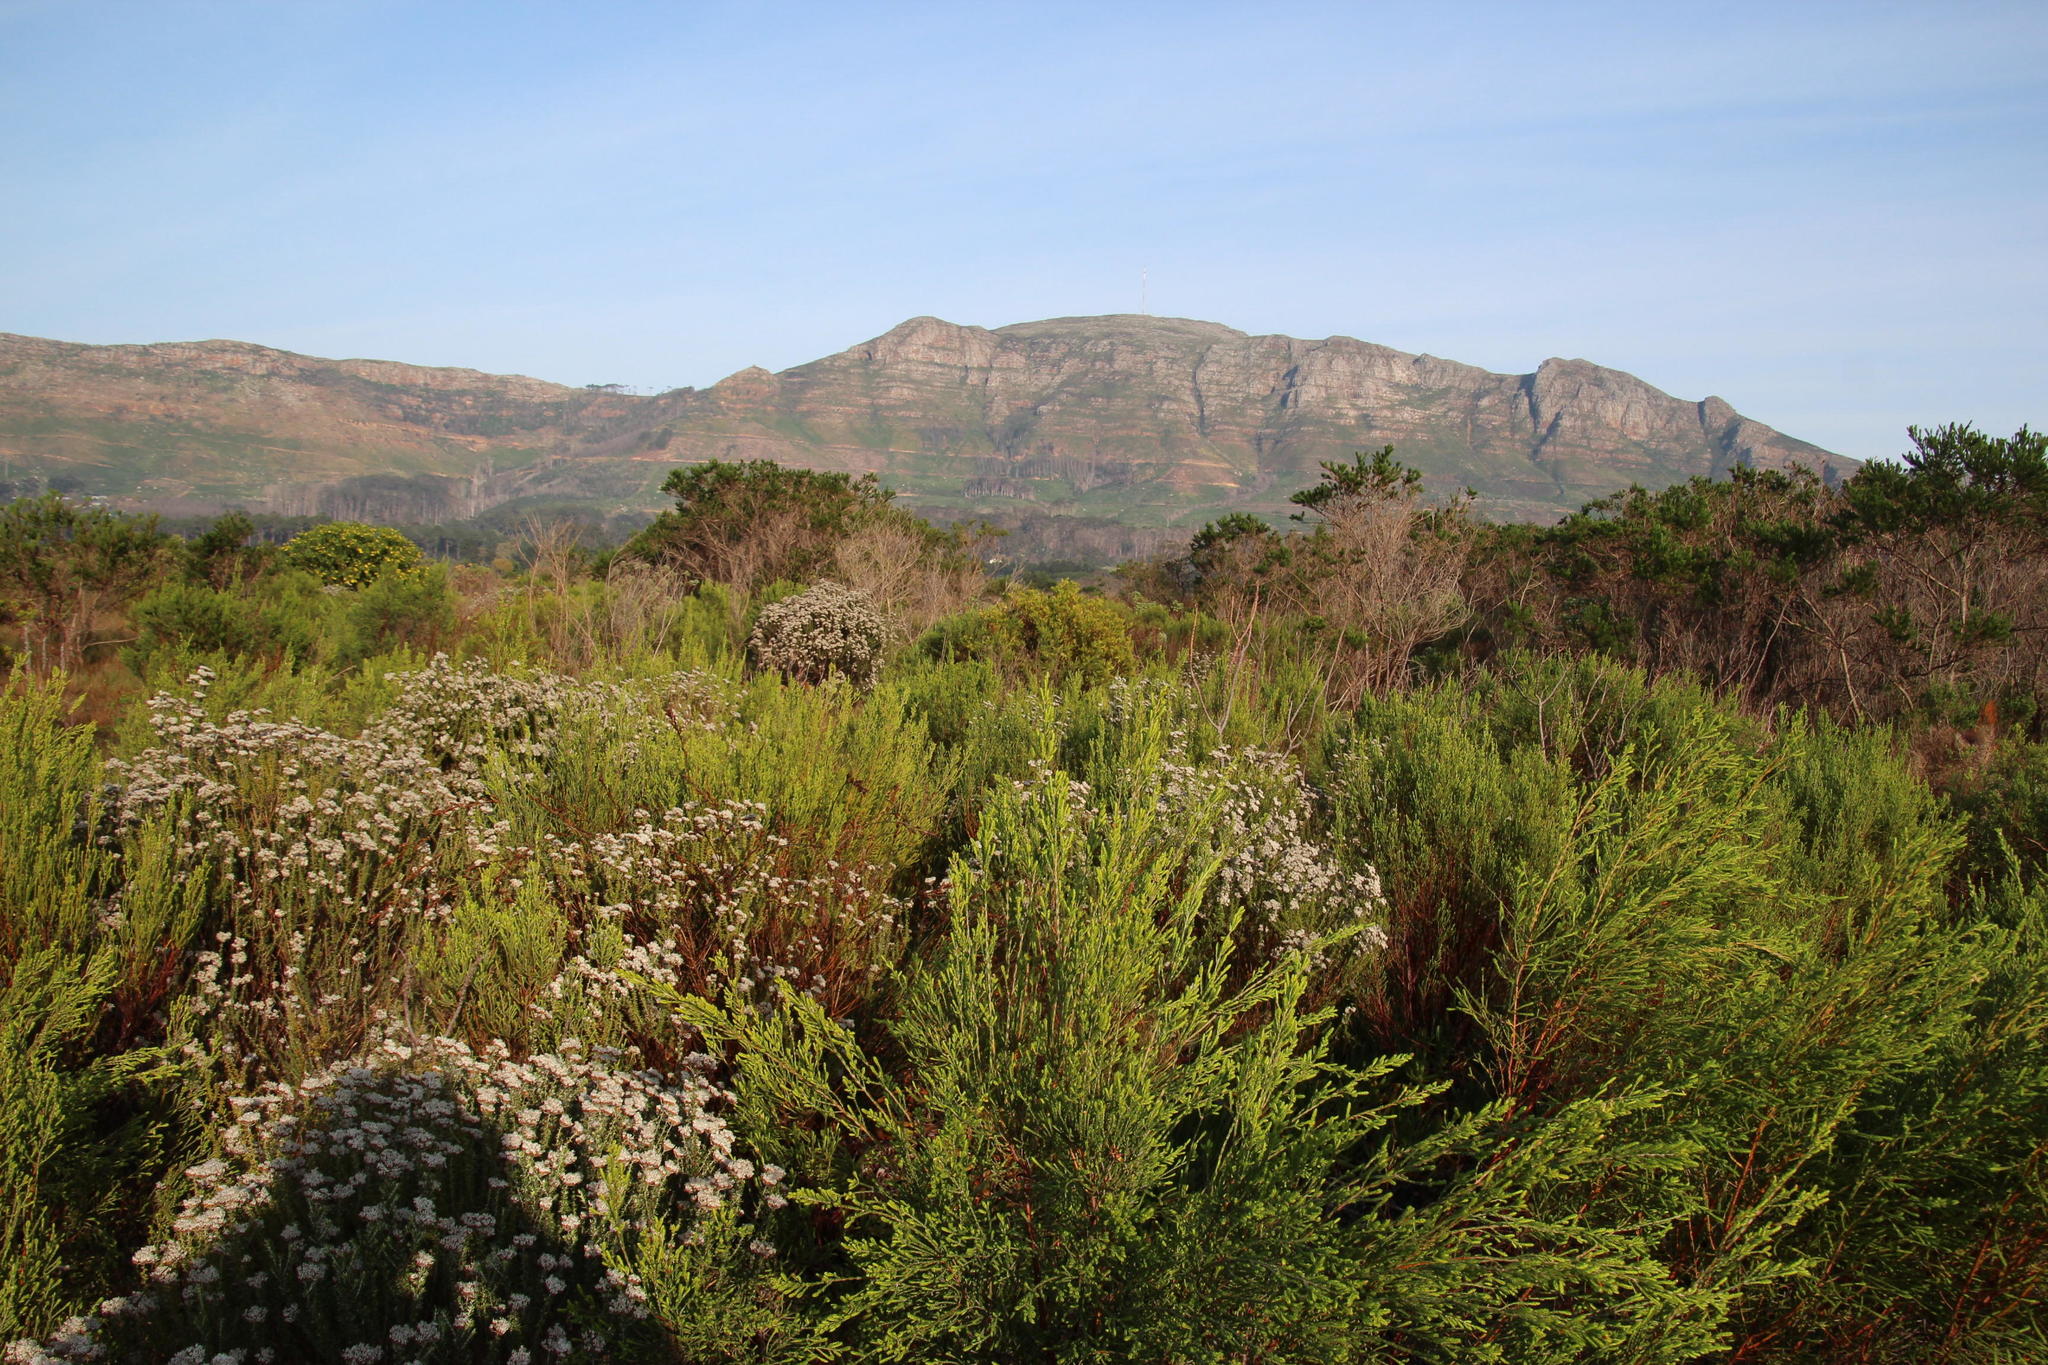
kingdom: Plantae
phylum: Tracheophyta
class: Magnoliopsida
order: Malvales
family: Thymelaeaceae
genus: Passerina
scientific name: Passerina corymbosa
